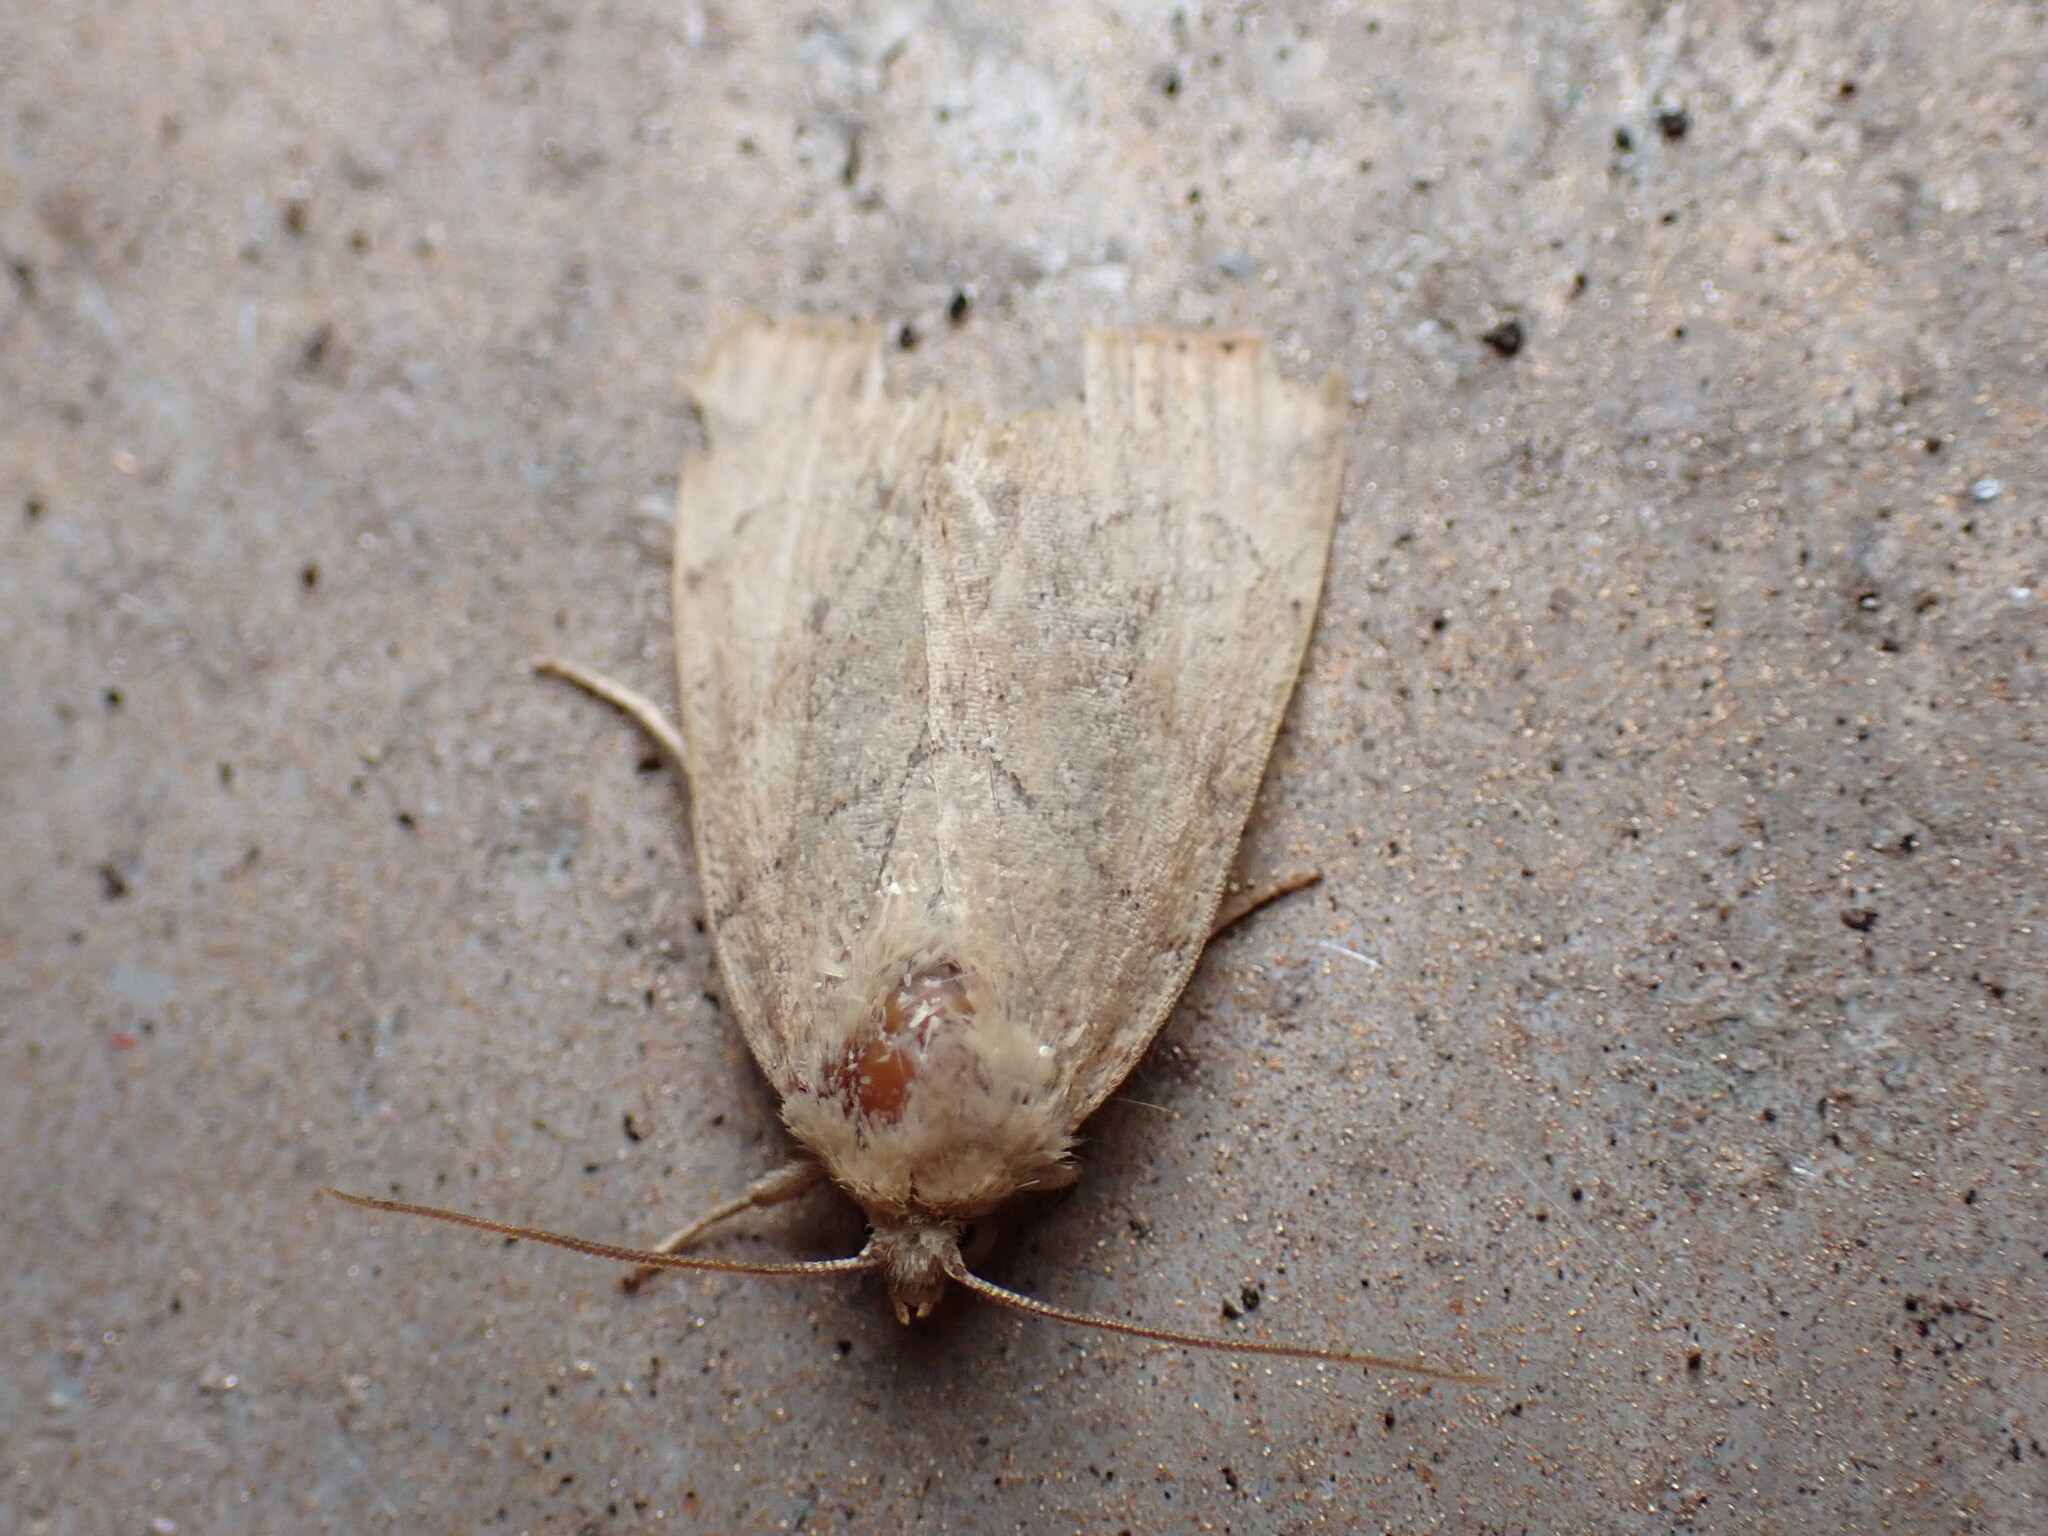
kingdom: Animalia
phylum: Arthropoda
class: Insecta
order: Lepidoptera
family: Noctuidae
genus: Cosmia
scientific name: Cosmia trapezina
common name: Dun-bar
